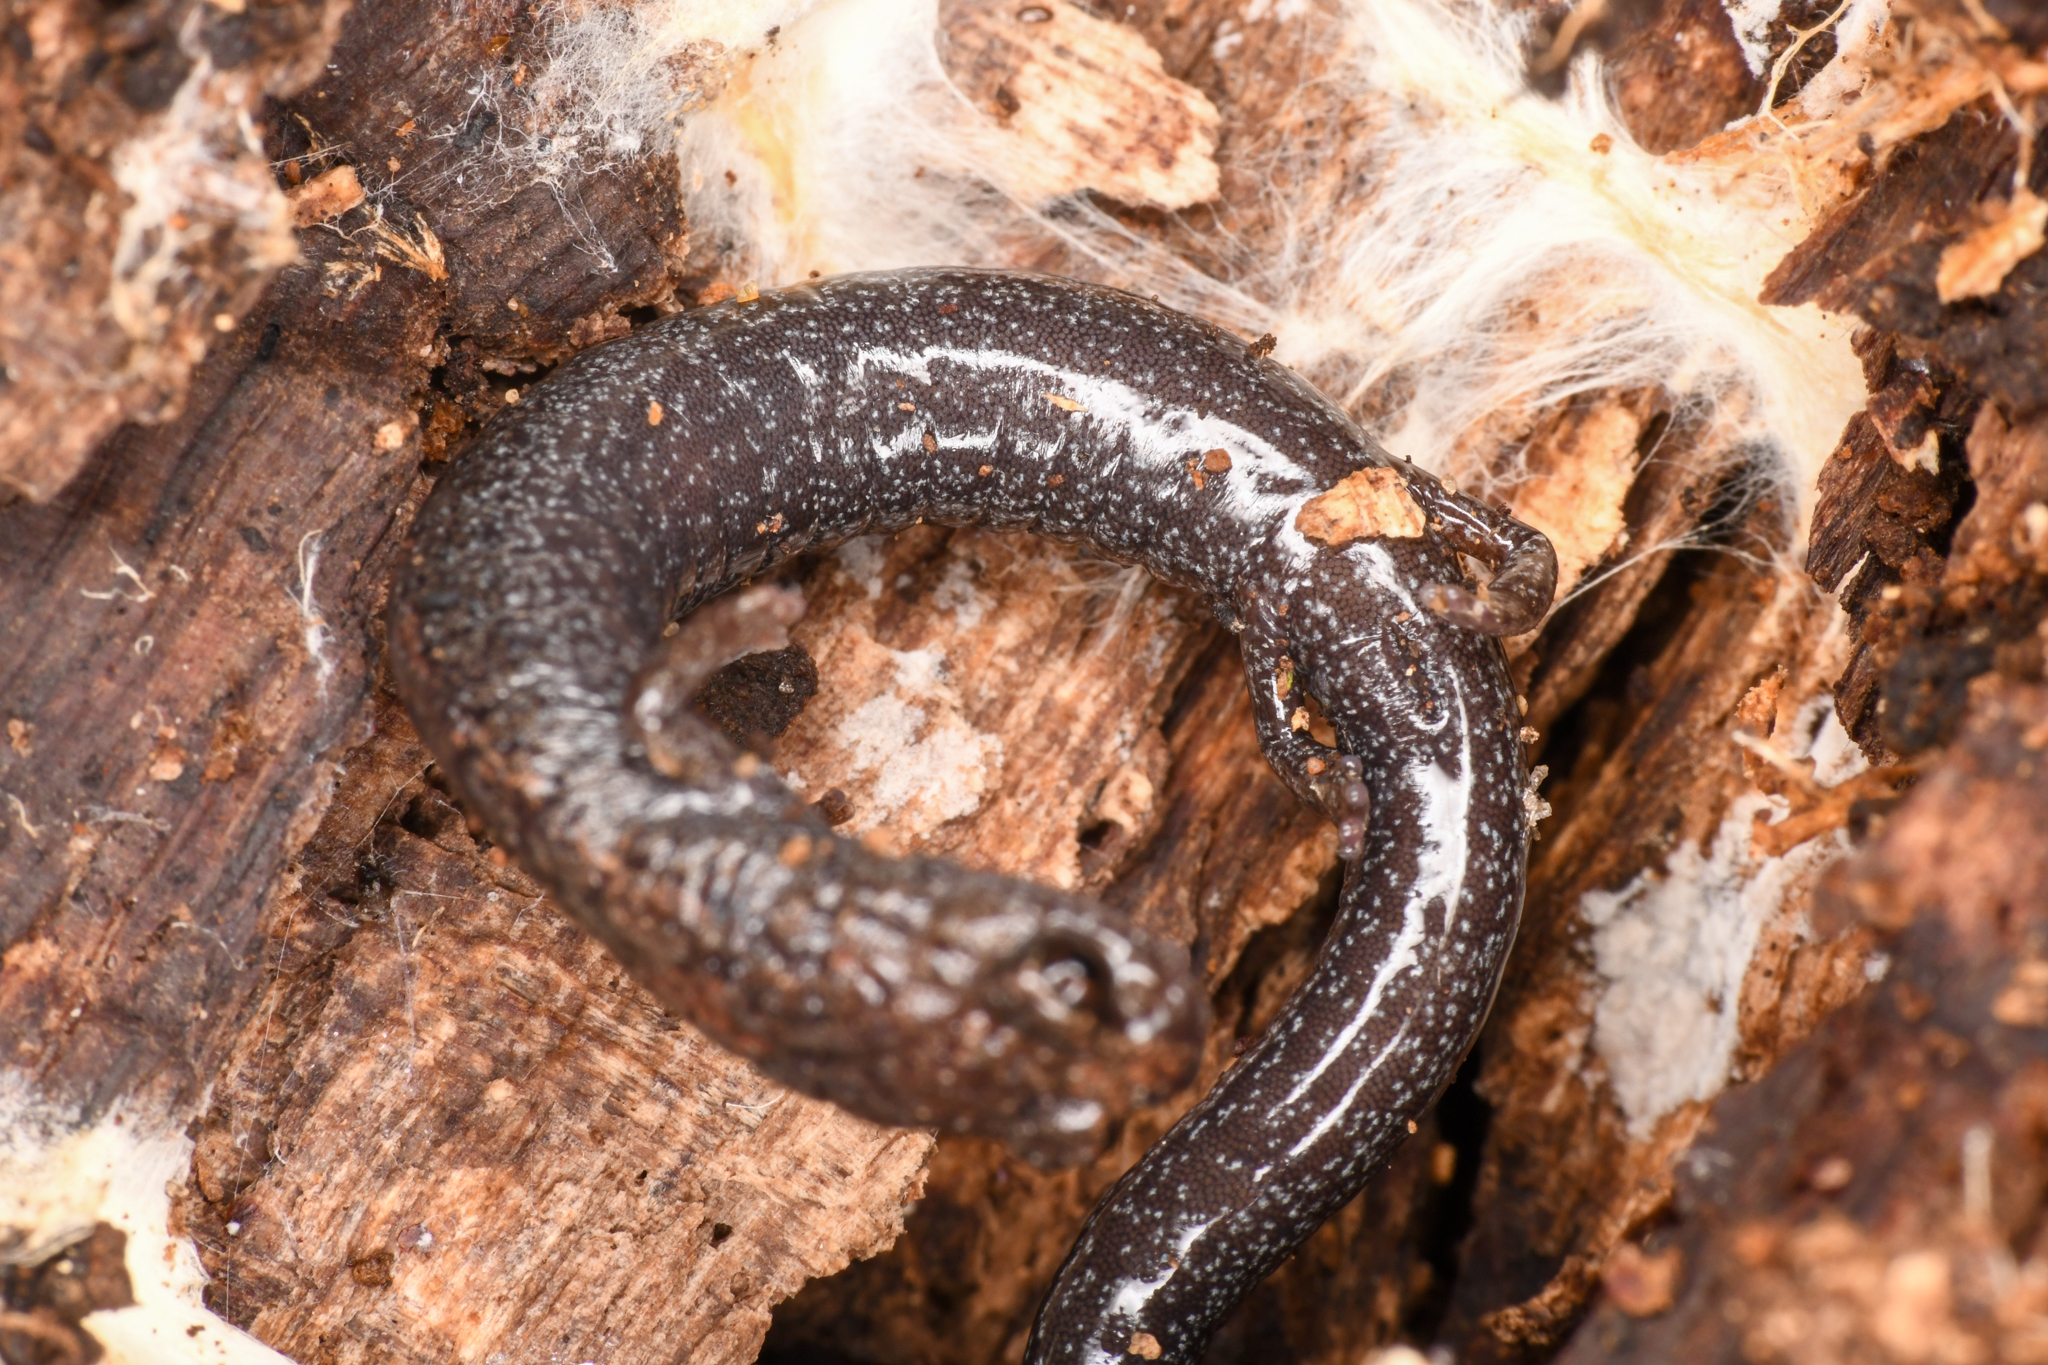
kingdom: Animalia
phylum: Chordata
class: Amphibia
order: Caudata
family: Plethodontidae
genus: Batrachoseps
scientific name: Batrachoseps nigriventris
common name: Black-bellied slender salamander
